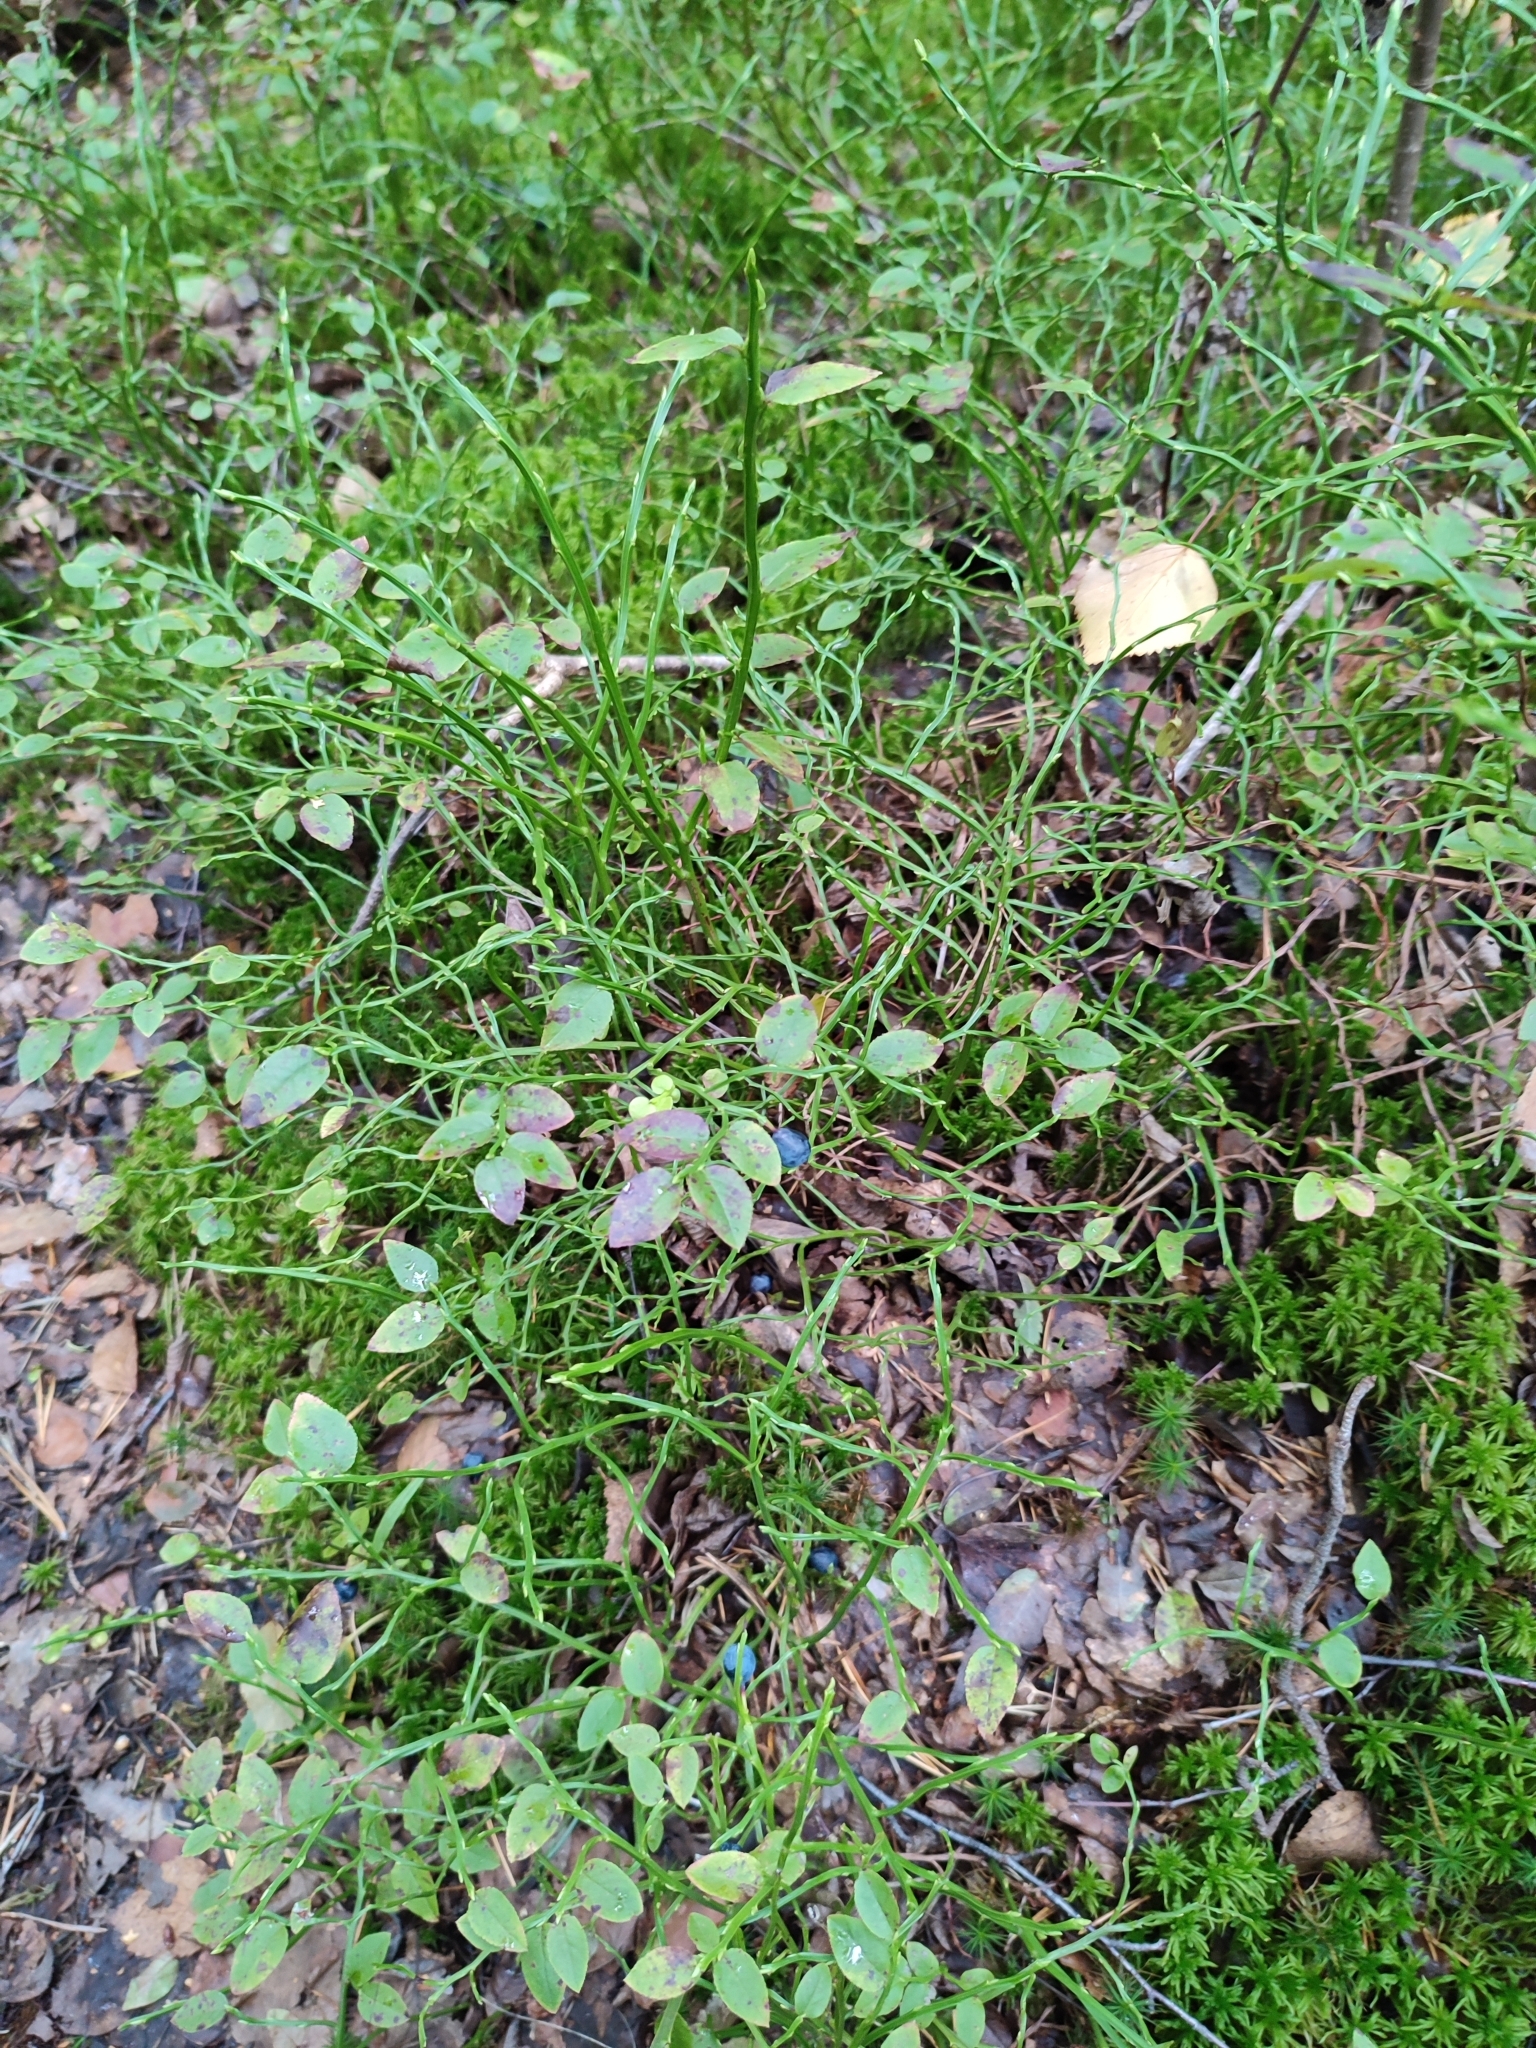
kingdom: Plantae
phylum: Tracheophyta
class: Magnoliopsida
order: Ericales
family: Ericaceae
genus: Vaccinium
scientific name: Vaccinium myrtillus
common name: Bilberry
